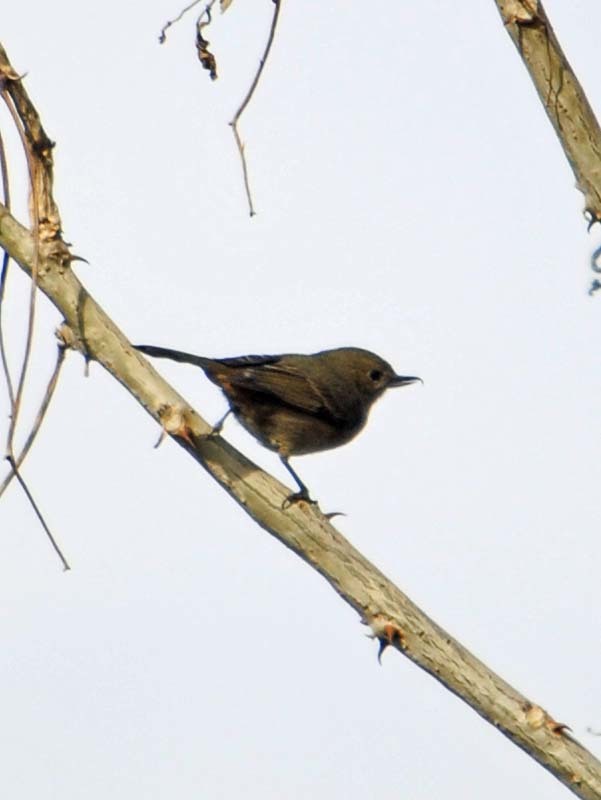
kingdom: Animalia
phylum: Chordata
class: Aves
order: Passeriformes
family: Thraupidae
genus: Diglossa
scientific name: Diglossa baritula
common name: Cinnamon-bellied flowerpiercer
